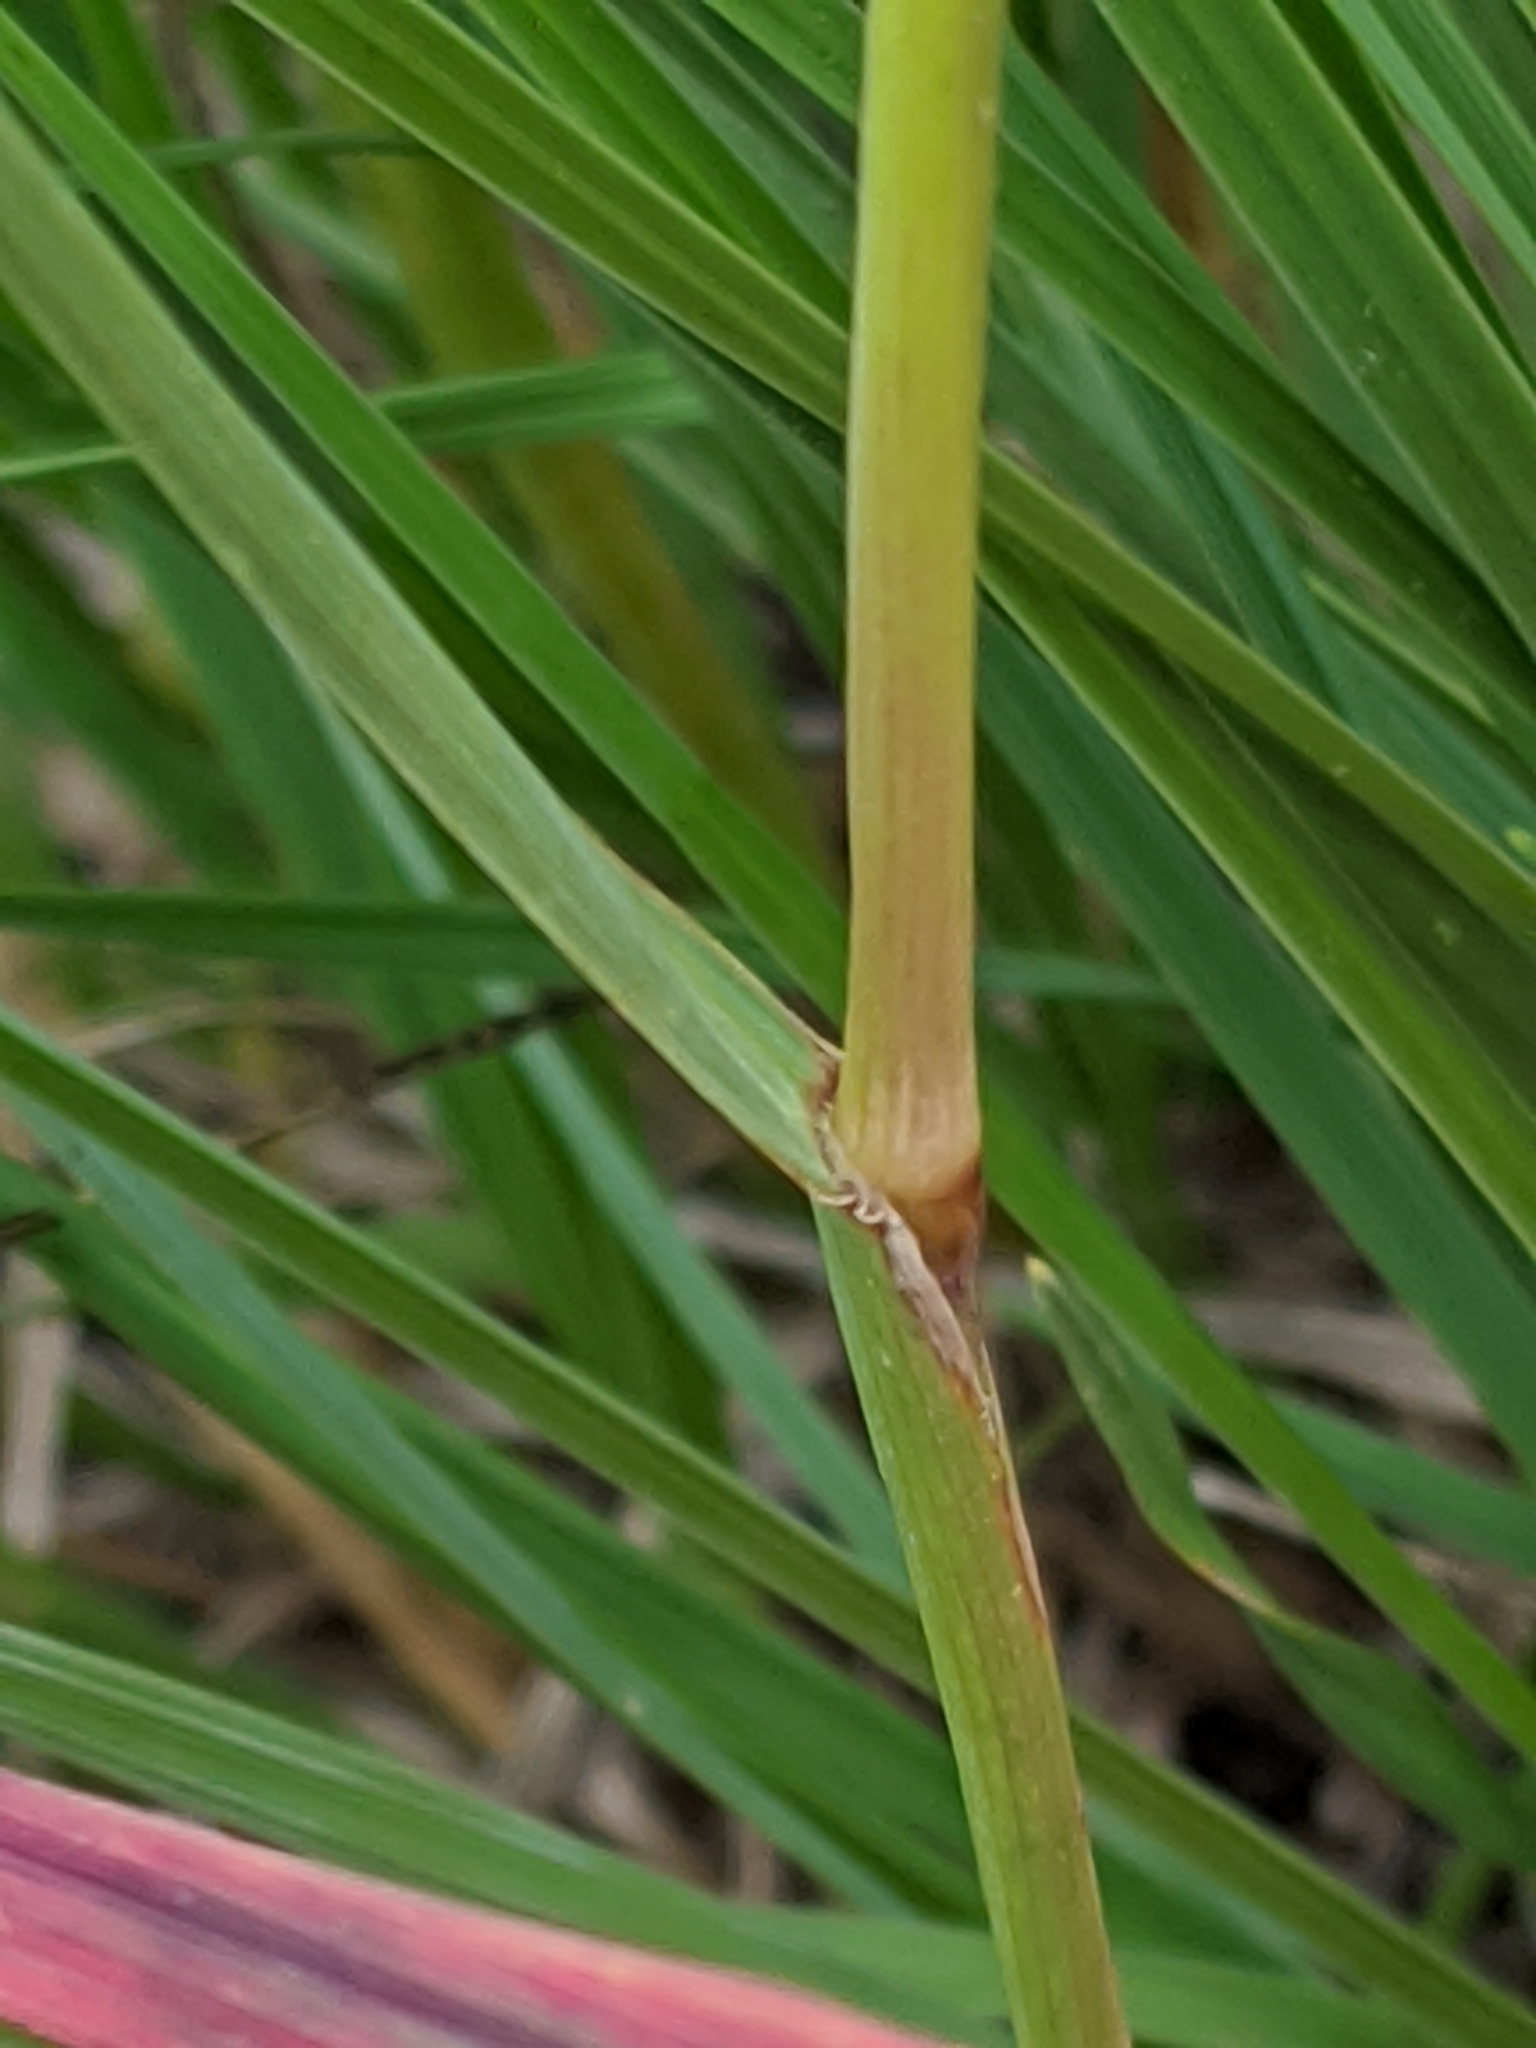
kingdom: Plantae
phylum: Tracheophyta
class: Liliopsida
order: Poales
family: Poaceae
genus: Koeleria
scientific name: Koeleria macrantha
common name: Crested hair-grass
